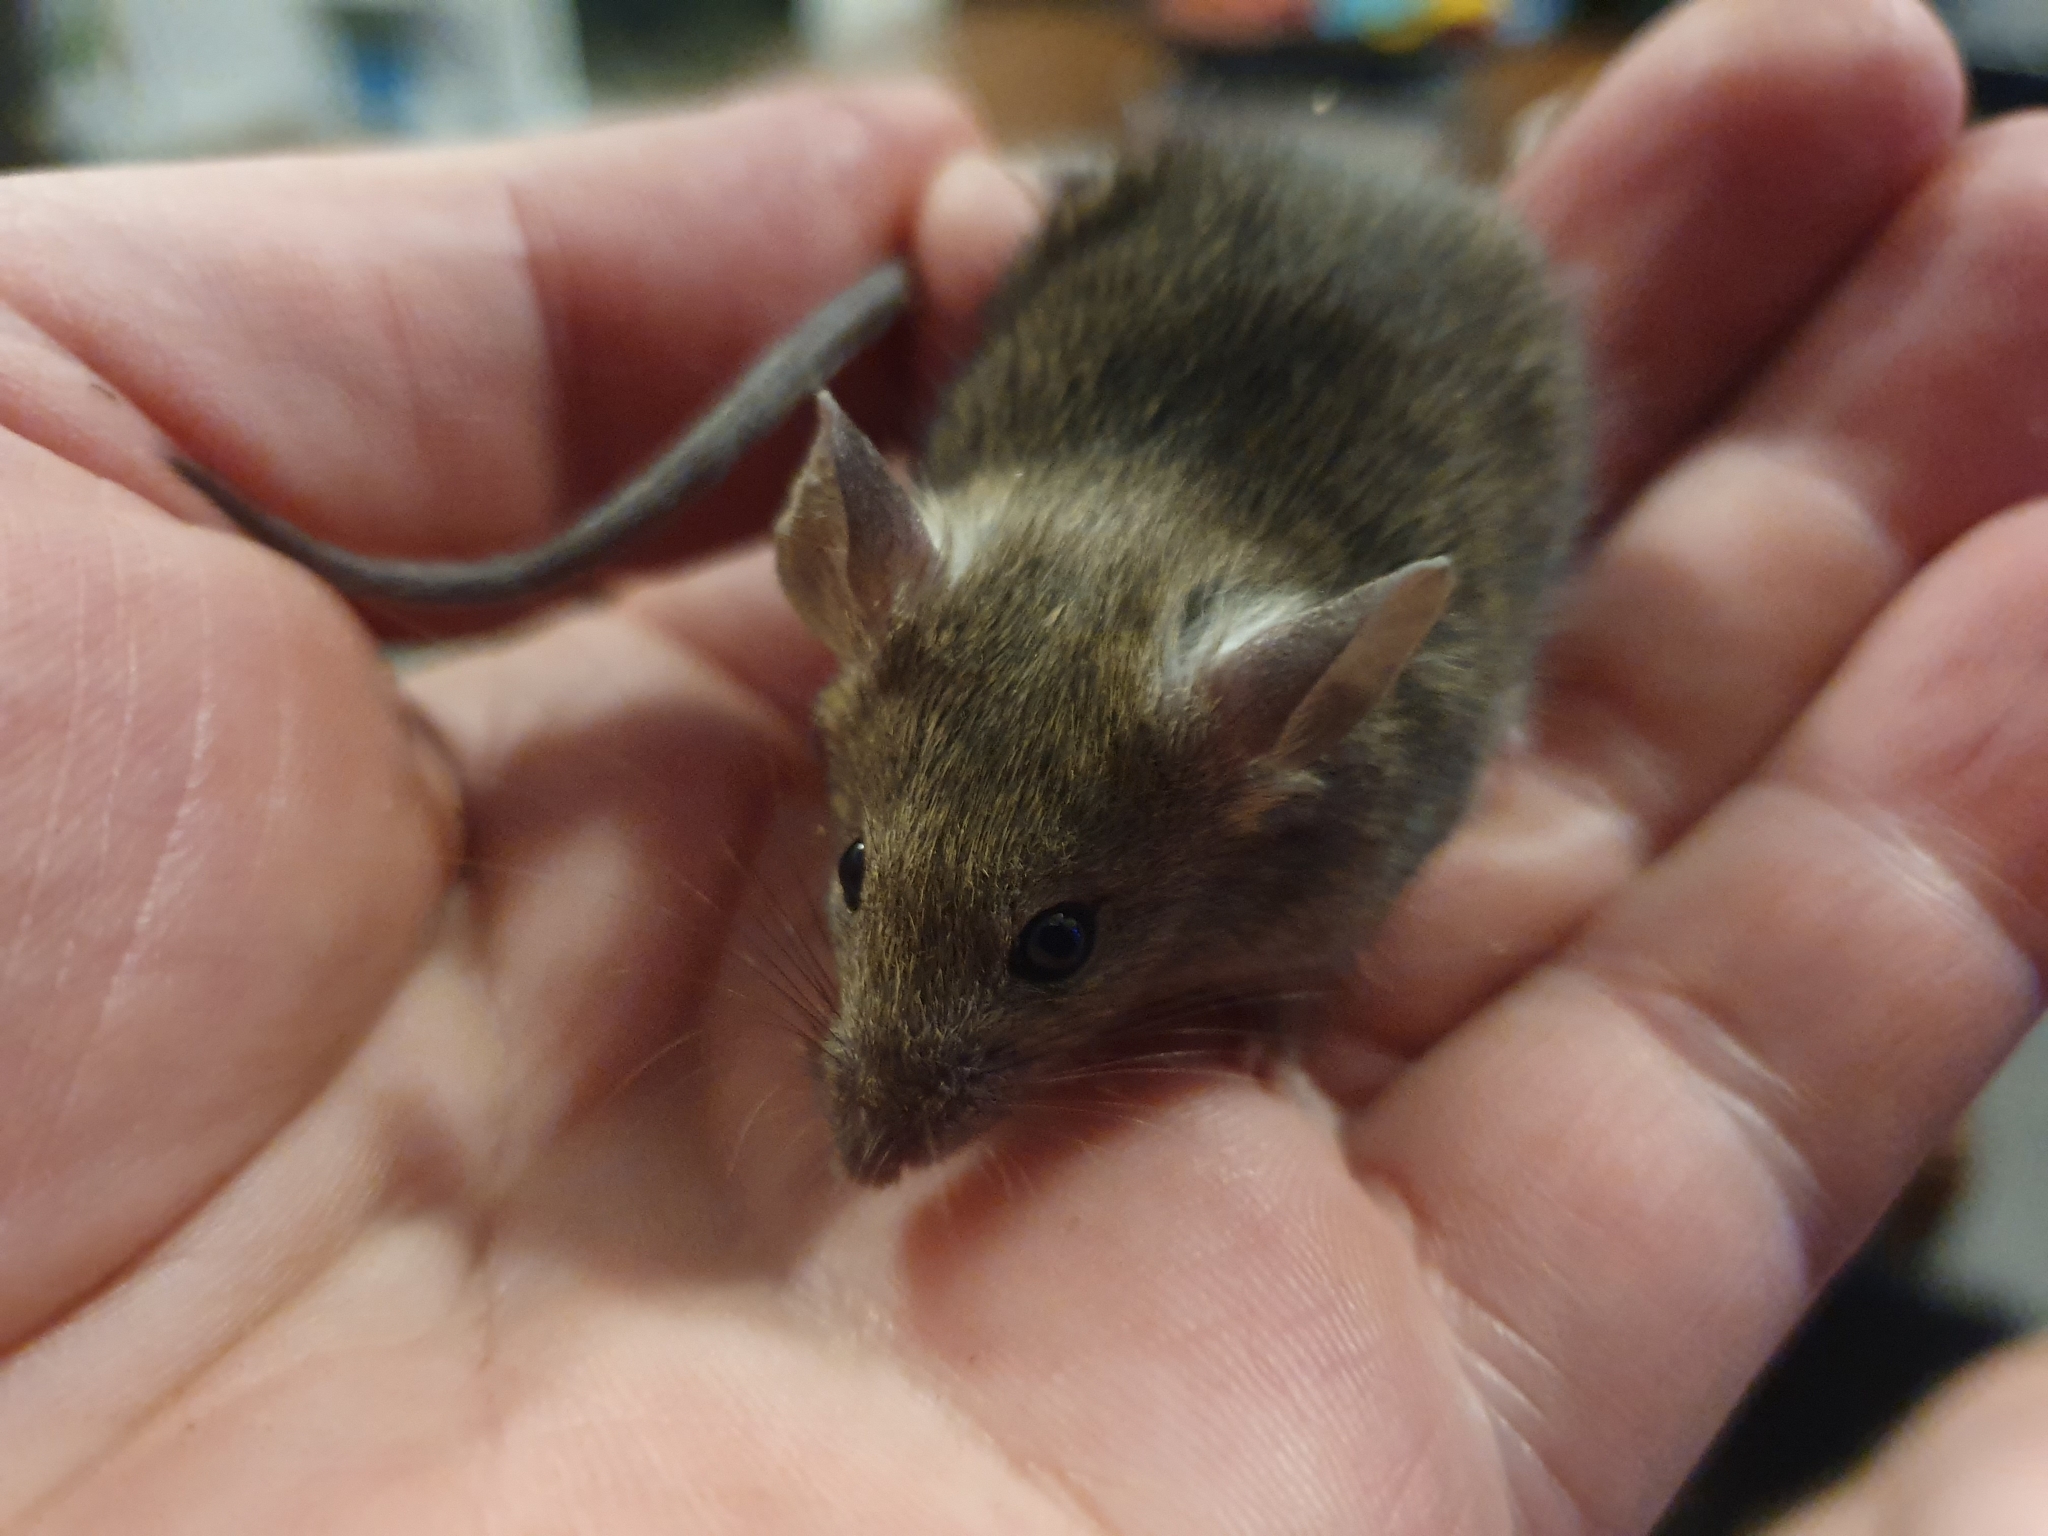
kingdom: Animalia
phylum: Chordata
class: Mammalia
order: Rodentia
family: Muridae
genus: Mus
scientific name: Mus musculus
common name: House mouse
